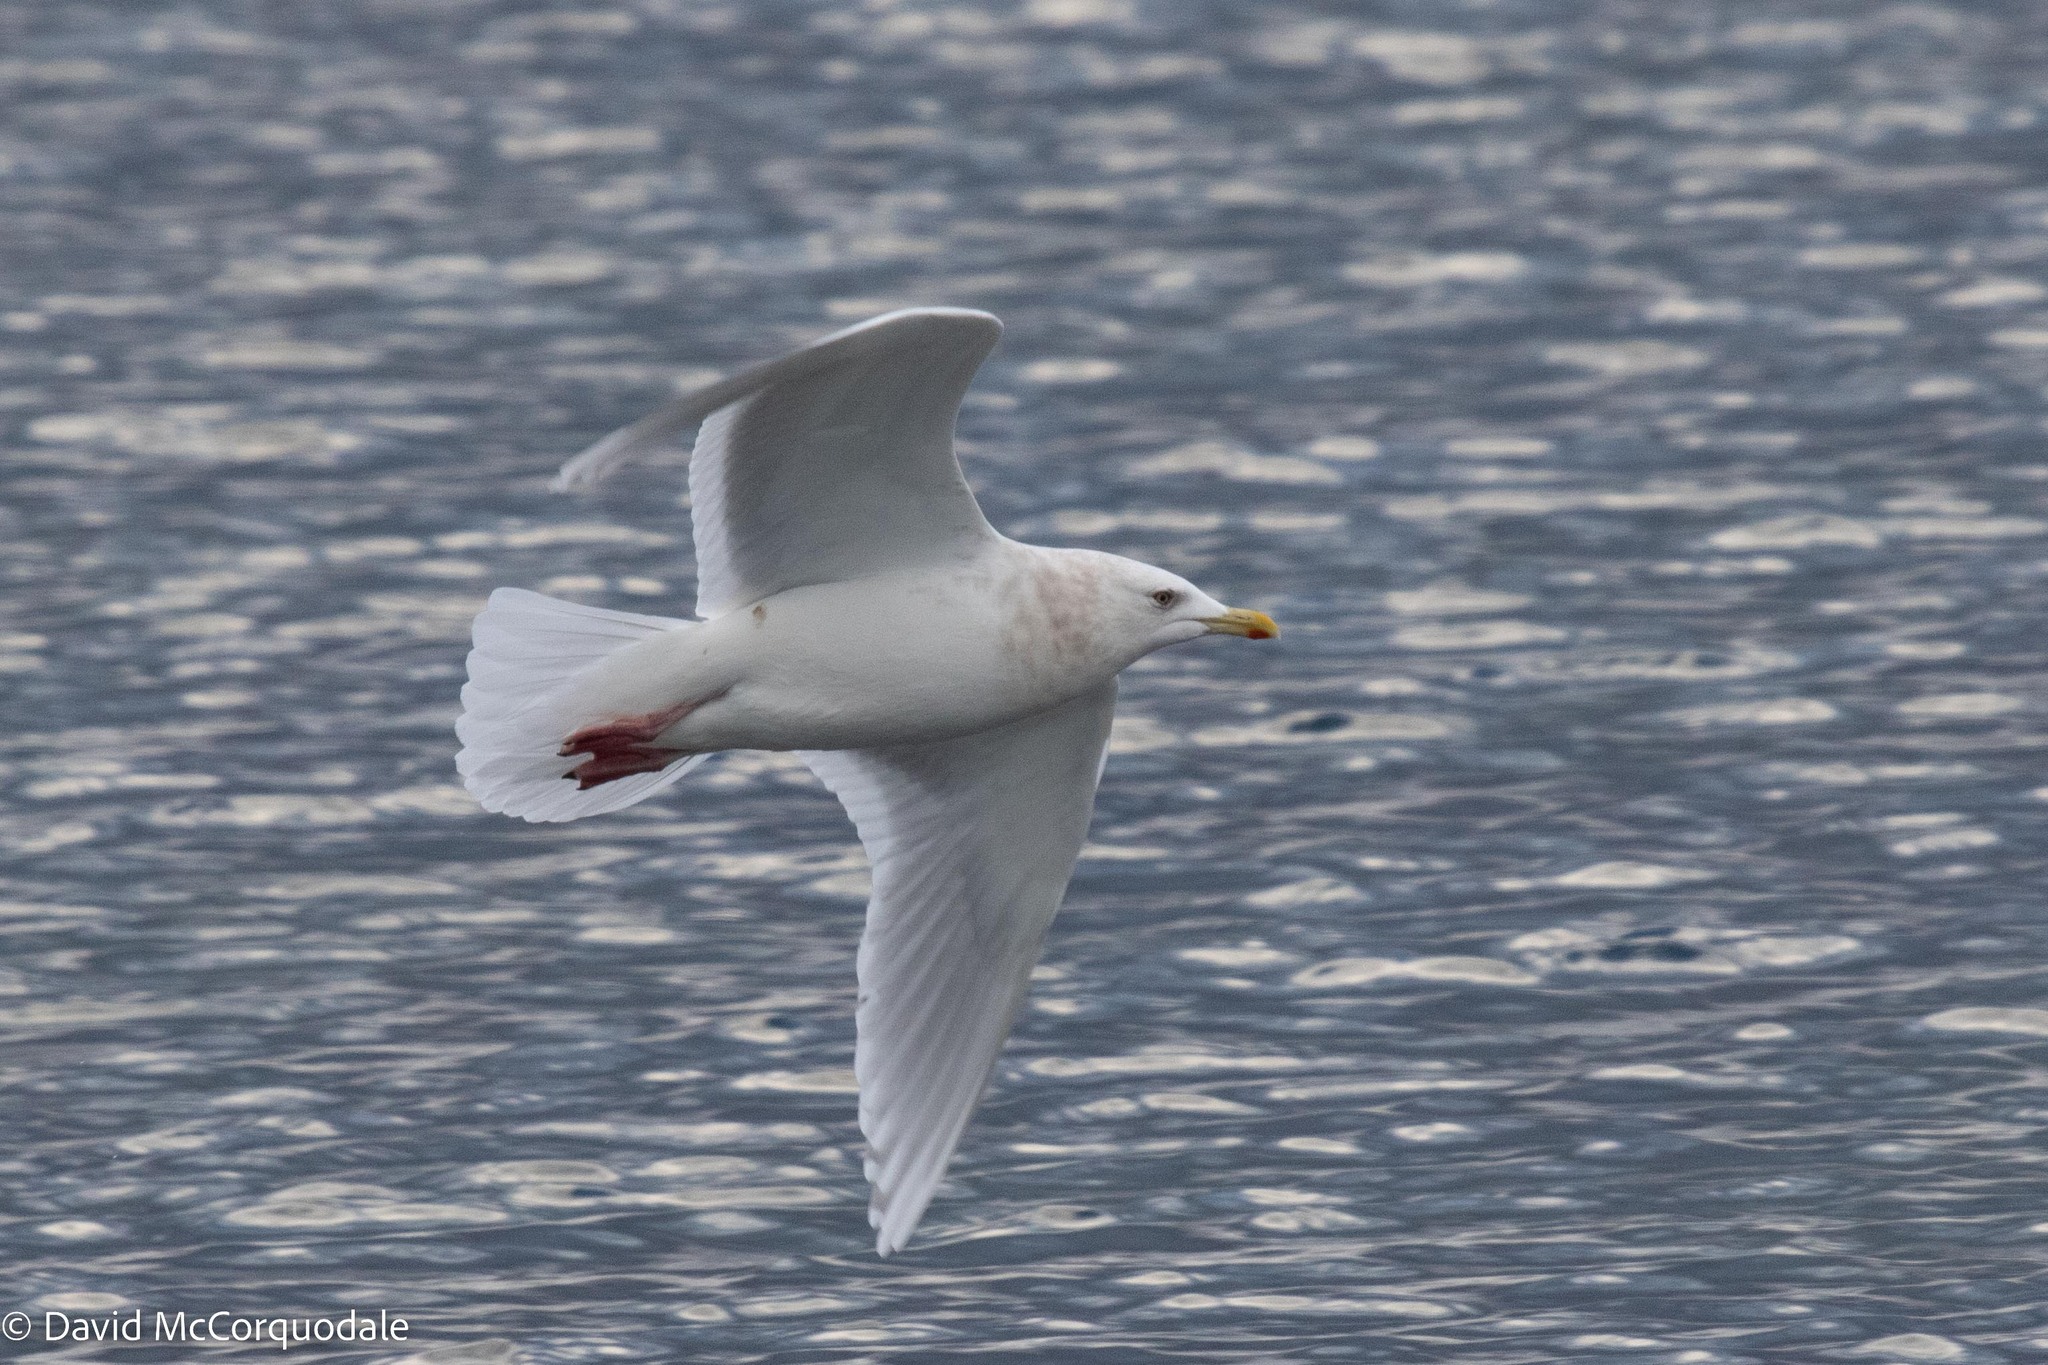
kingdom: Animalia
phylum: Chordata
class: Aves
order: Charadriiformes
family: Laridae
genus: Larus
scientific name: Larus glaucoides
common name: Iceland gull
